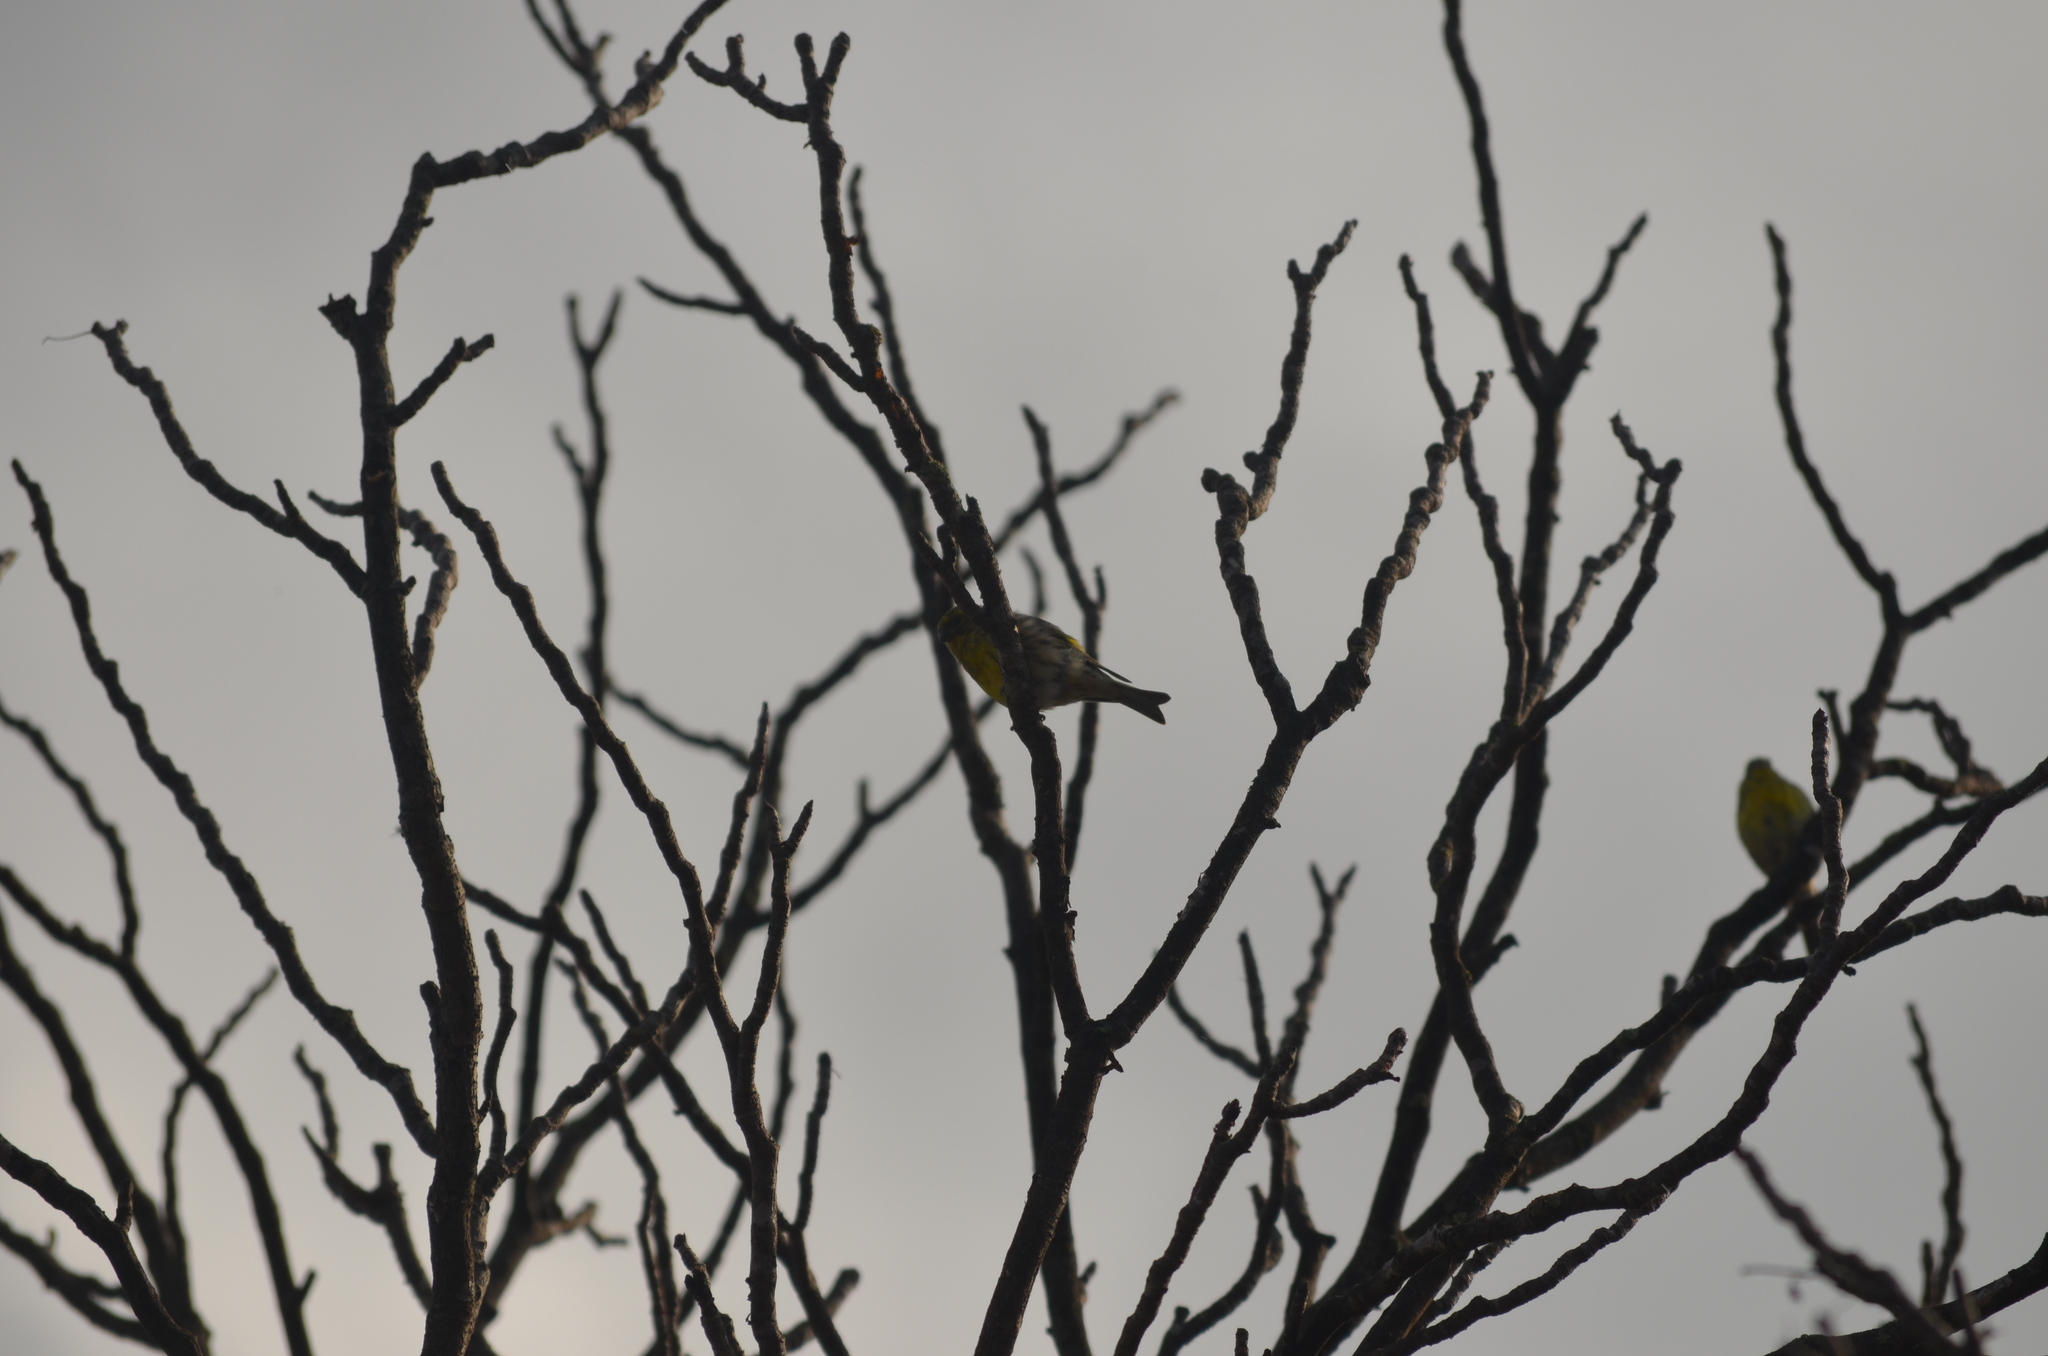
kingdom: Animalia
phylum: Chordata
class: Aves
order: Passeriformes
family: Fringillidae
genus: Serinus
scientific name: Serinus serinus
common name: European serin
